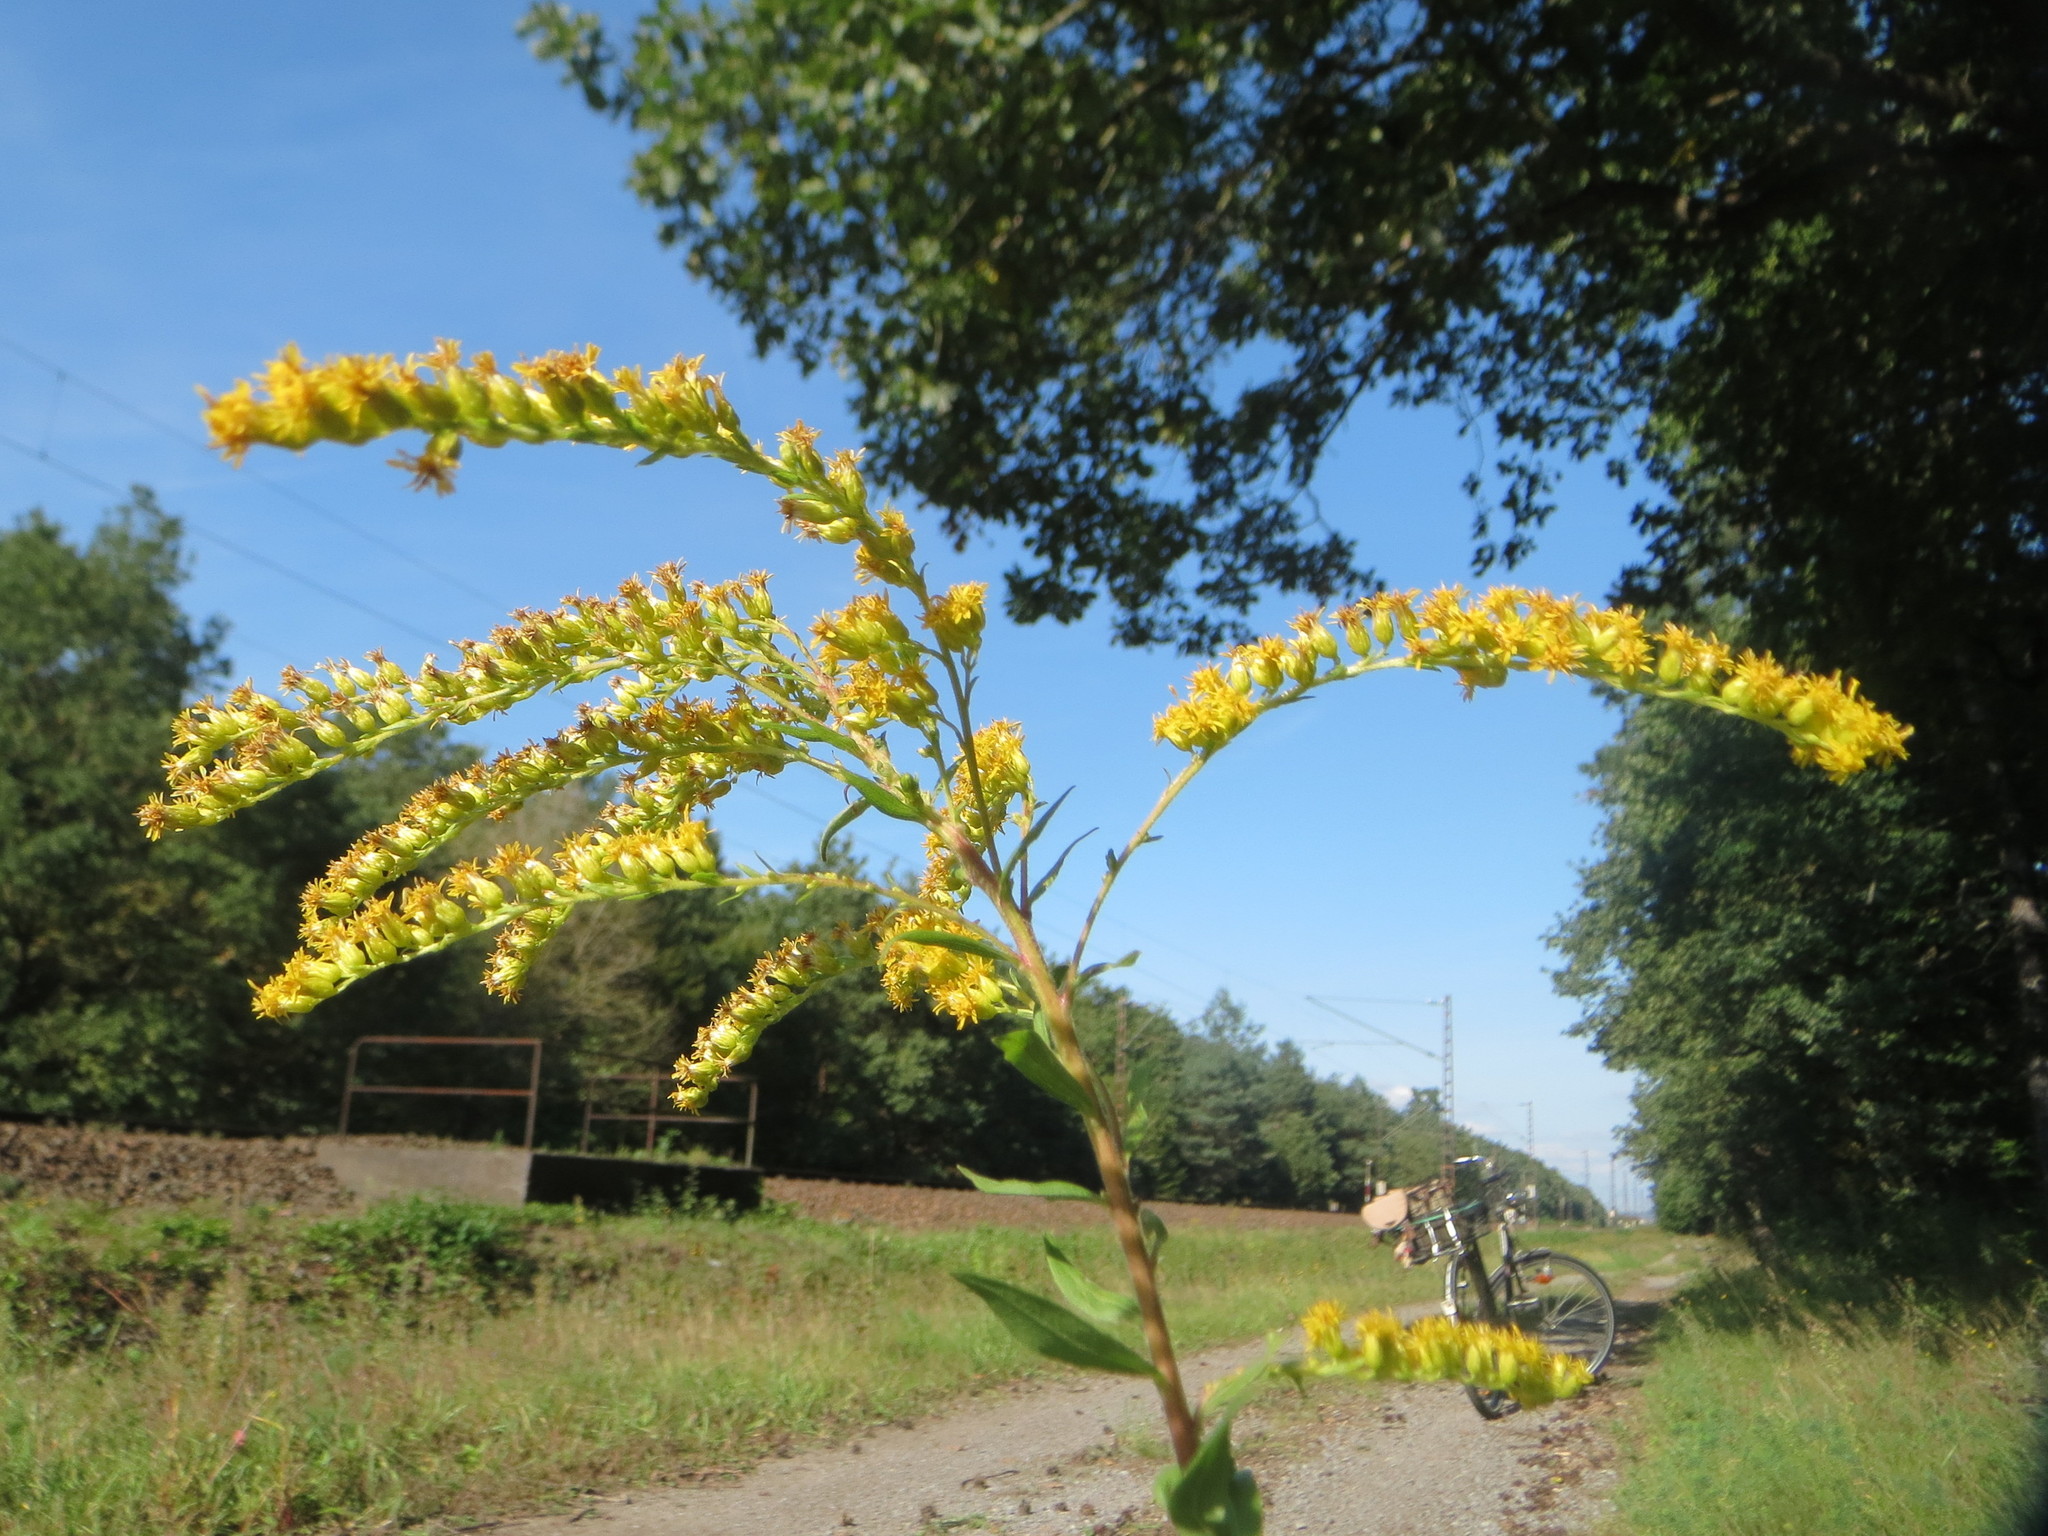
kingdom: Plantae
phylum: Tracheophyta
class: Magnoliopsida
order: Asterales
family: Asteraceae
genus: Solidago
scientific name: Solidago canadensis
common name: Canada goldenrod
